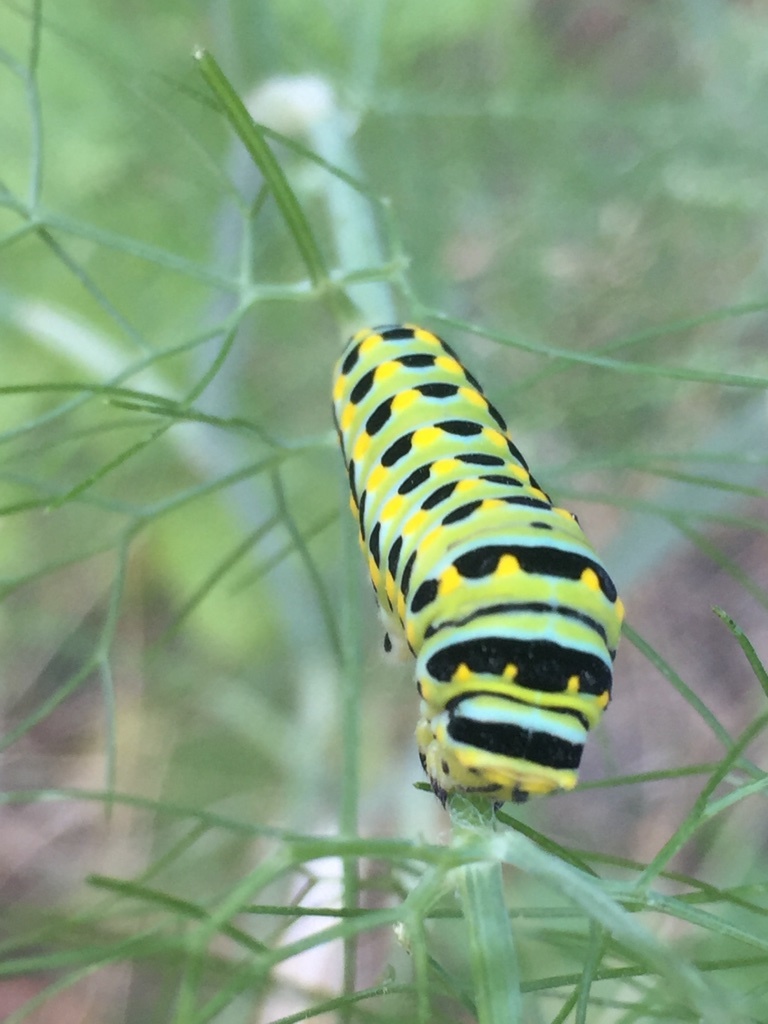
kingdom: Animalia
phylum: Arthropoda
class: Insecta
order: Lepidoptera
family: Papilionidae
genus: Papilio
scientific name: Papilio zelicaon
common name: Anise swallowtail
